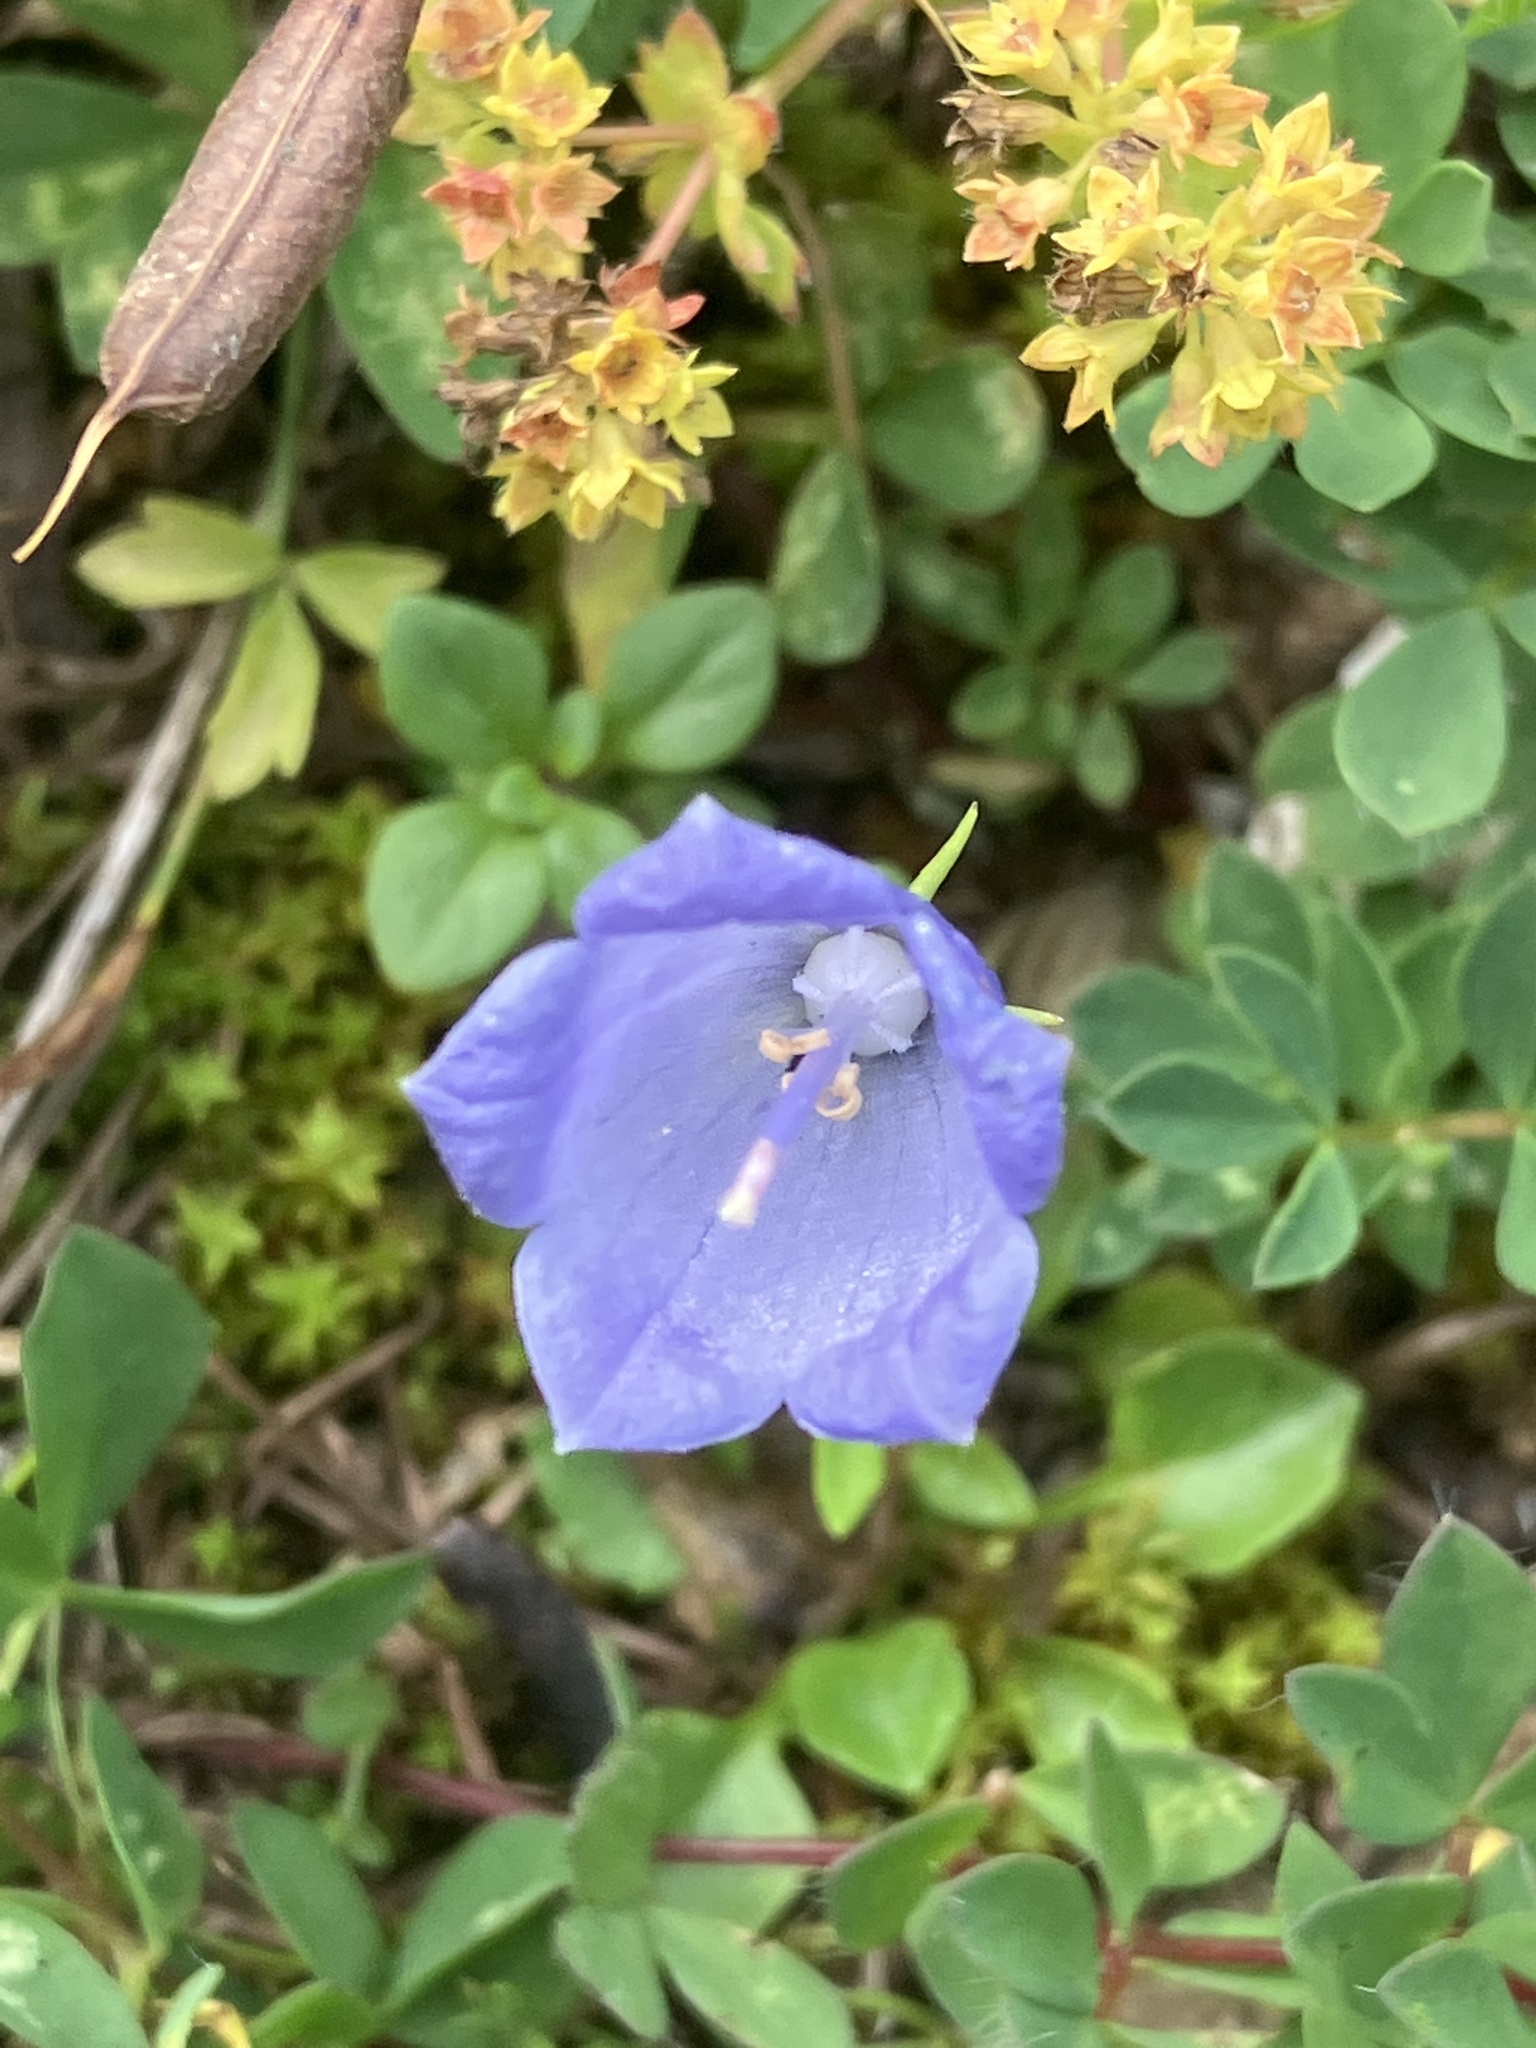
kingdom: Plantae
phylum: Tracheophyta
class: Magnoliopsida
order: Asterales
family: Campanulaceae
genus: Campanula
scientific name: Campanula cochleariifolia
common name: Fairies'-thimbles
